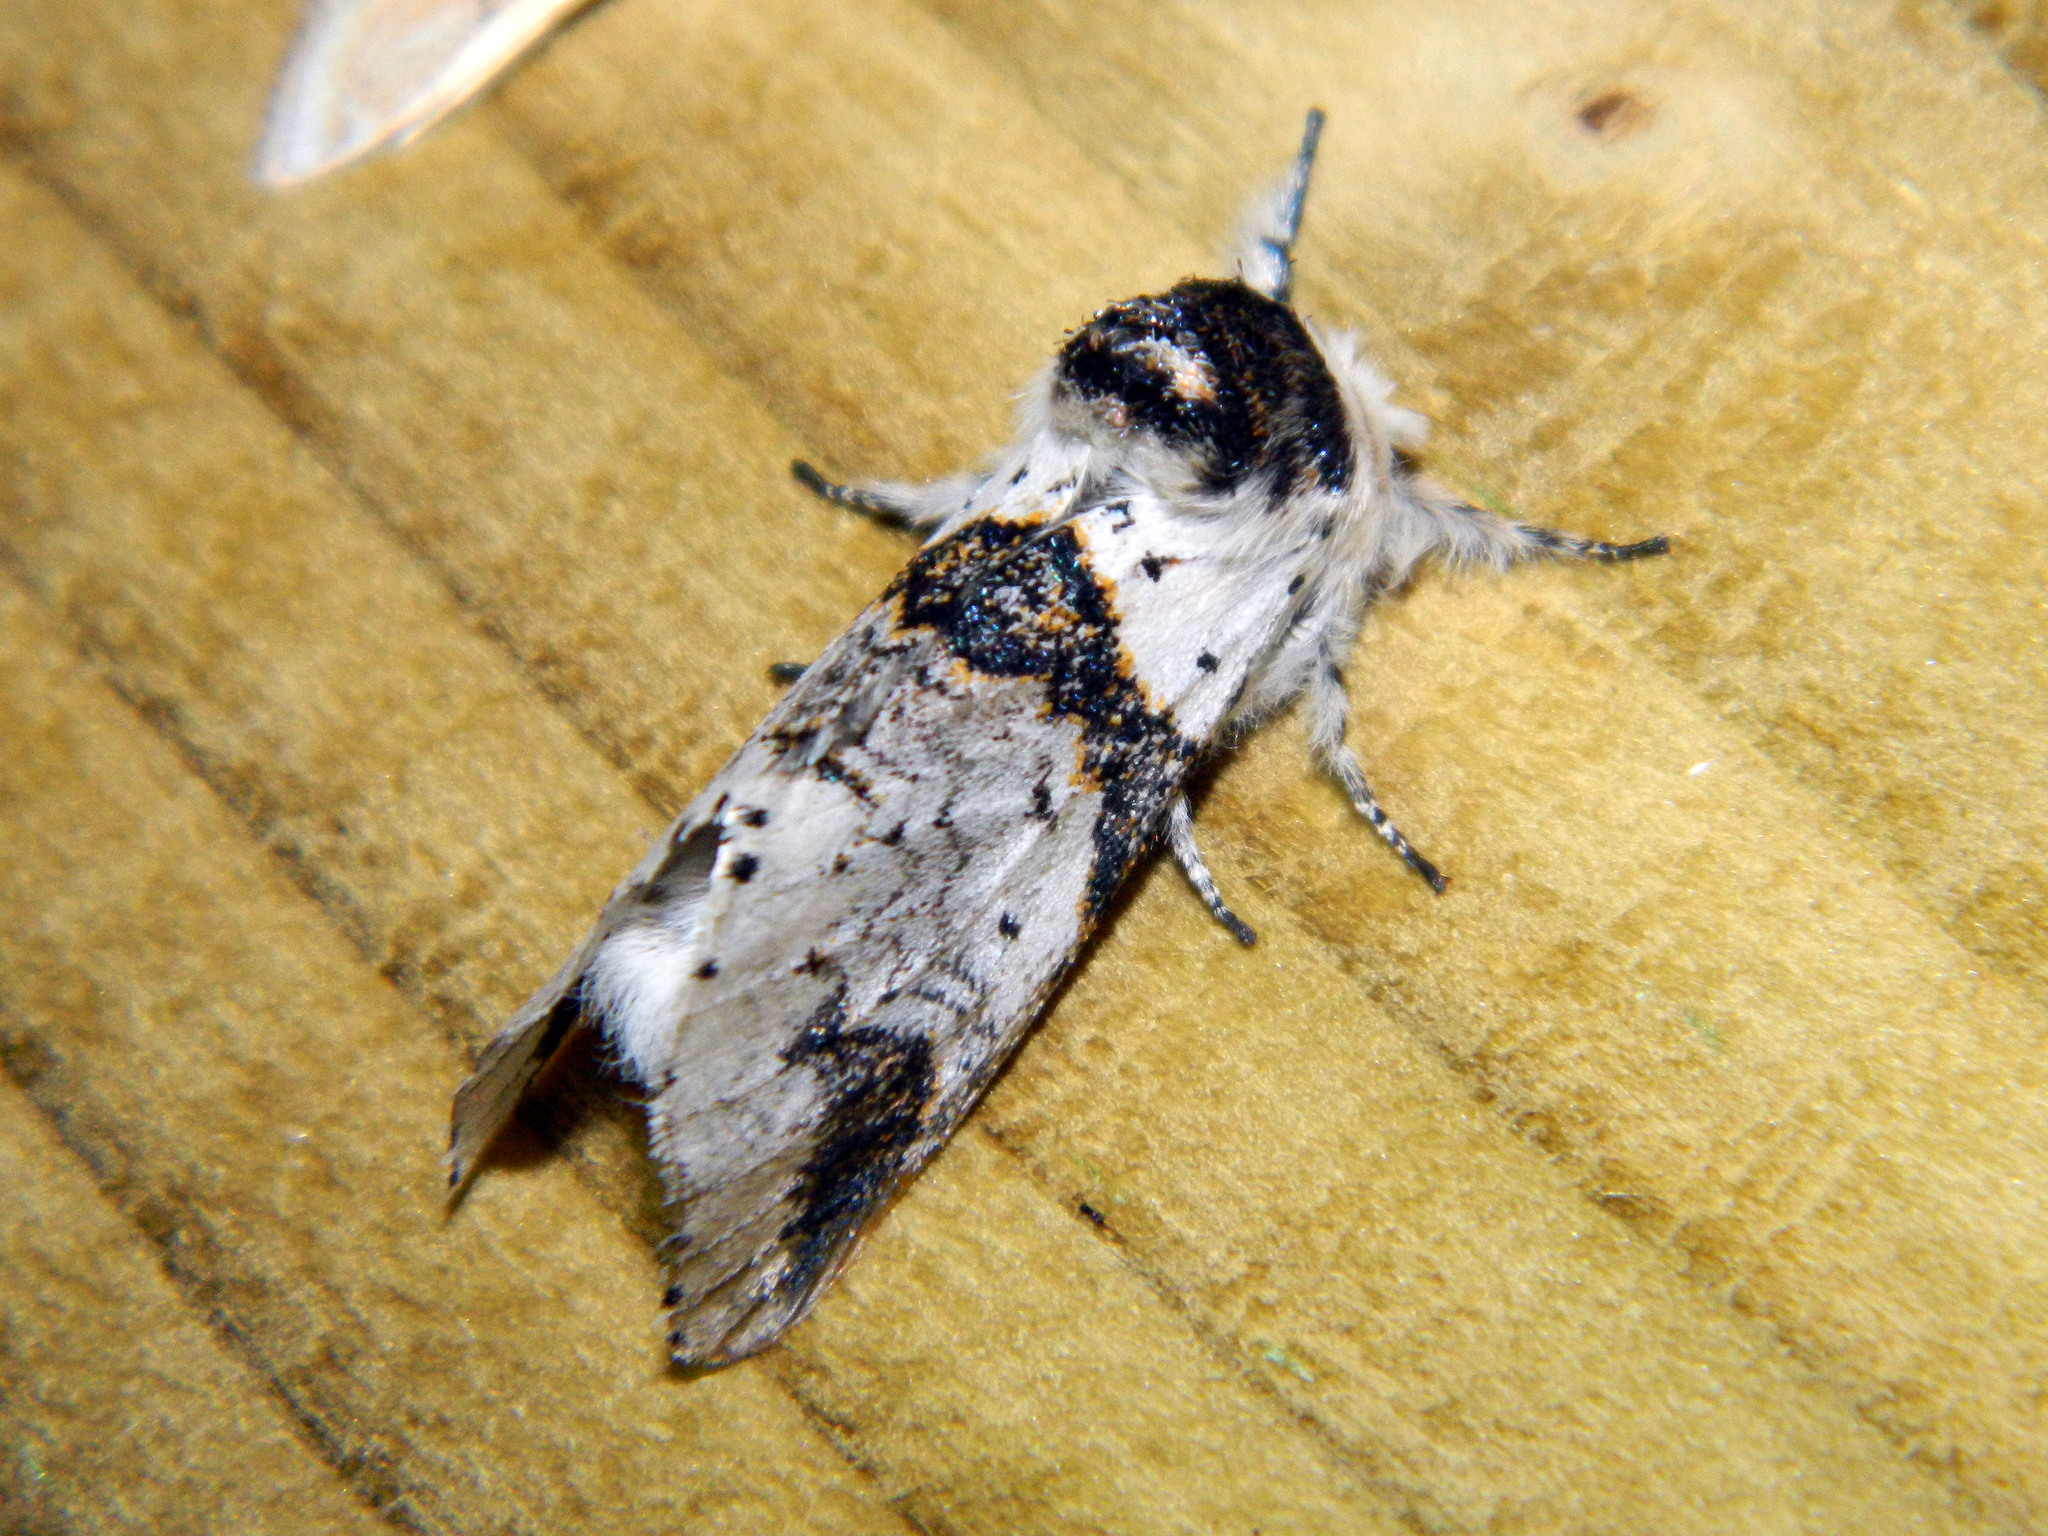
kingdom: Animalia
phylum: Arthropoda
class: Insecta
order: Lepidoptera
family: Notodontidae
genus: Furcula
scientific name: Furcula scolopendrina
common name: Zigzag furcula moth
